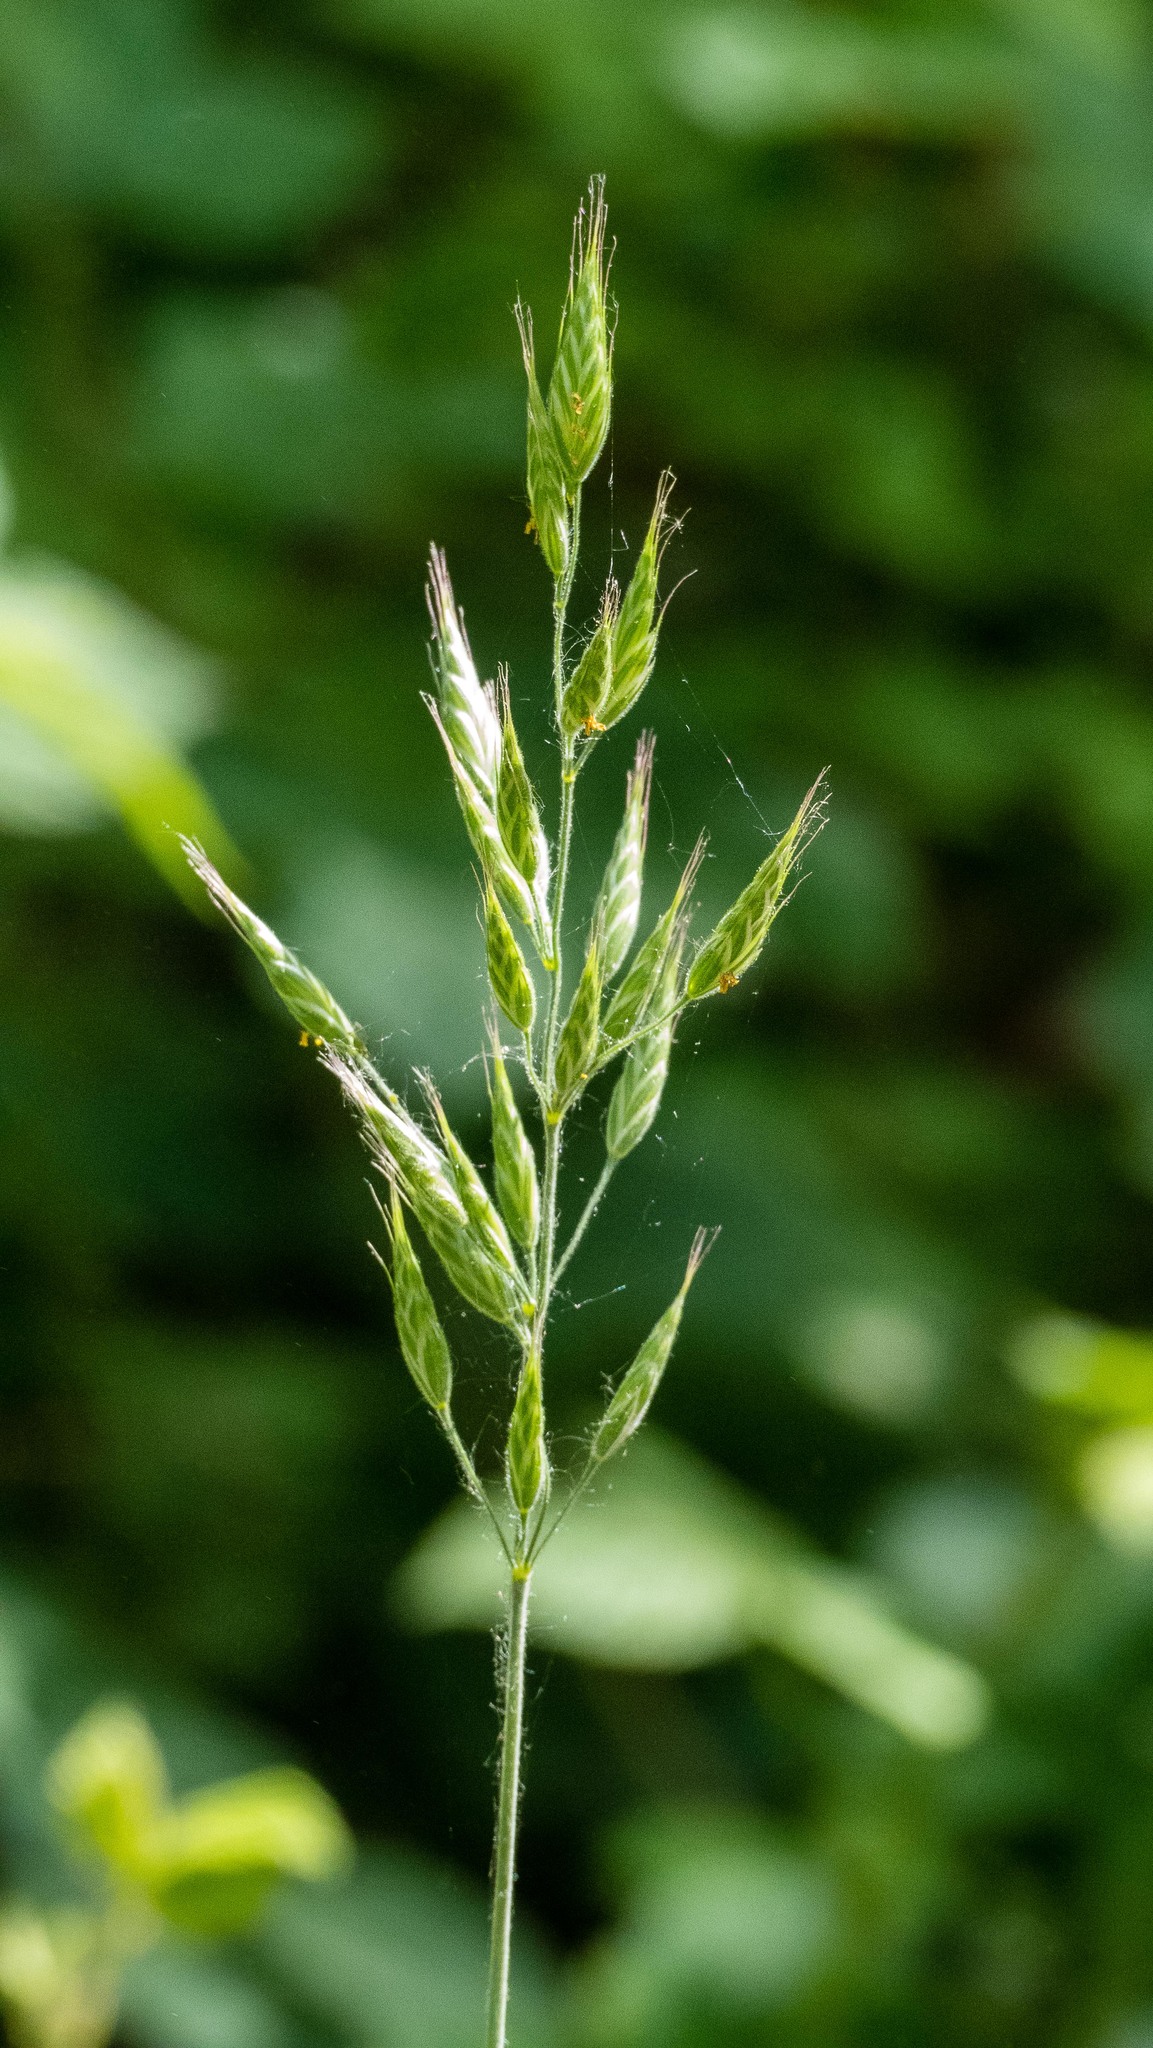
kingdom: Plantae
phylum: Tracheophyta
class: Liliopsida
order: Poales
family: Poaceae
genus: Bromus
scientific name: Bromus hordeaceus
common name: Soft brome
